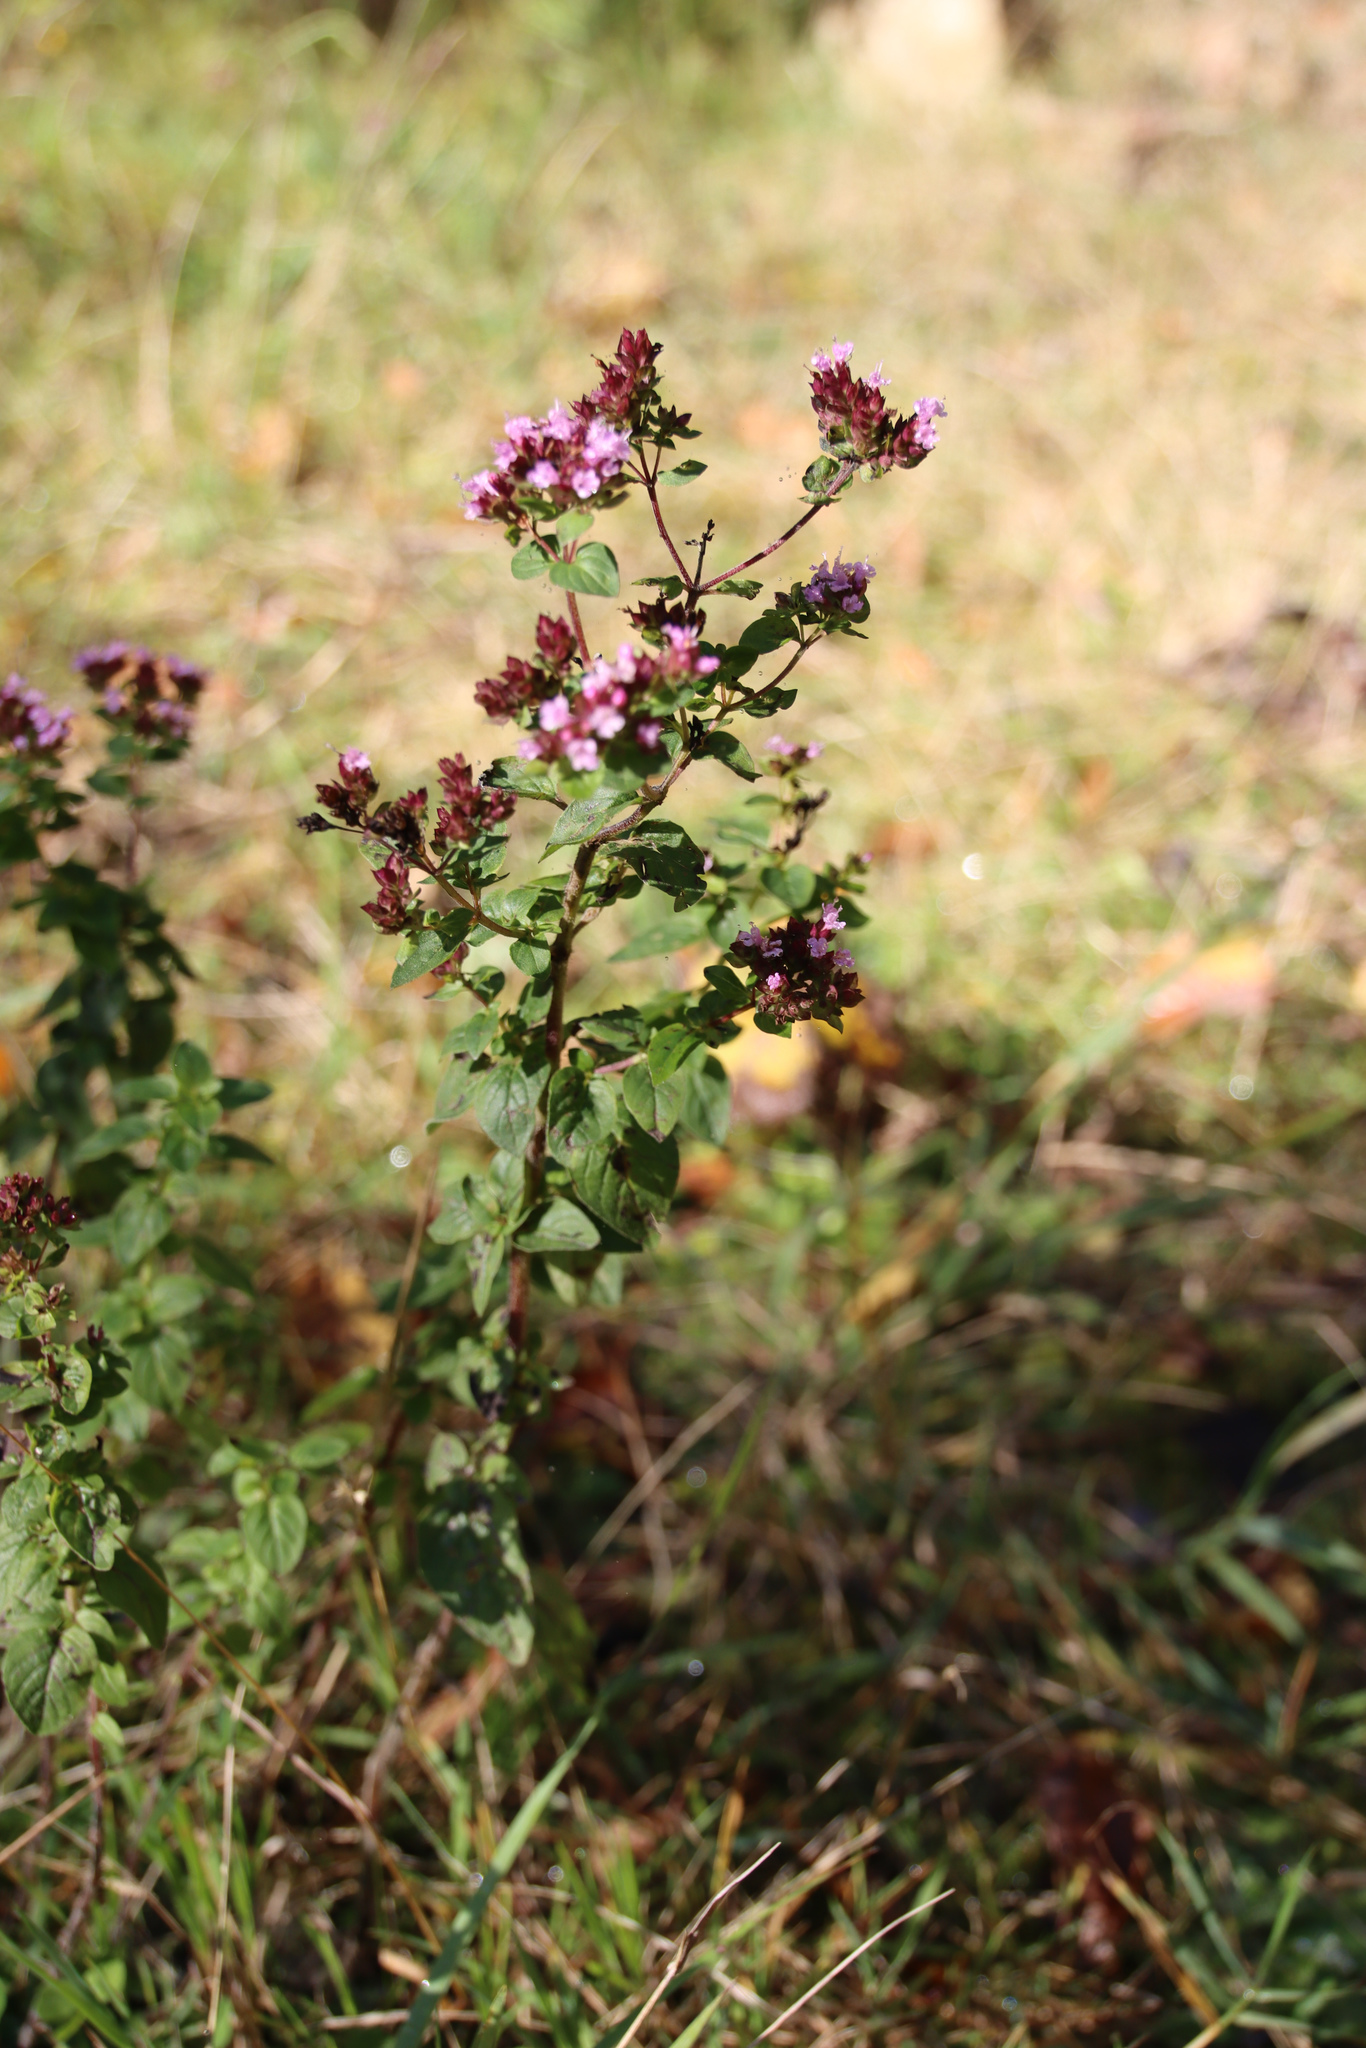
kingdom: Plantae
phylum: Tracheophyta
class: Magnoliopsida
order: Lamiales
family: Lamiaceae
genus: Origanum
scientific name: Origanum vulgare
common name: Wild marjoram
